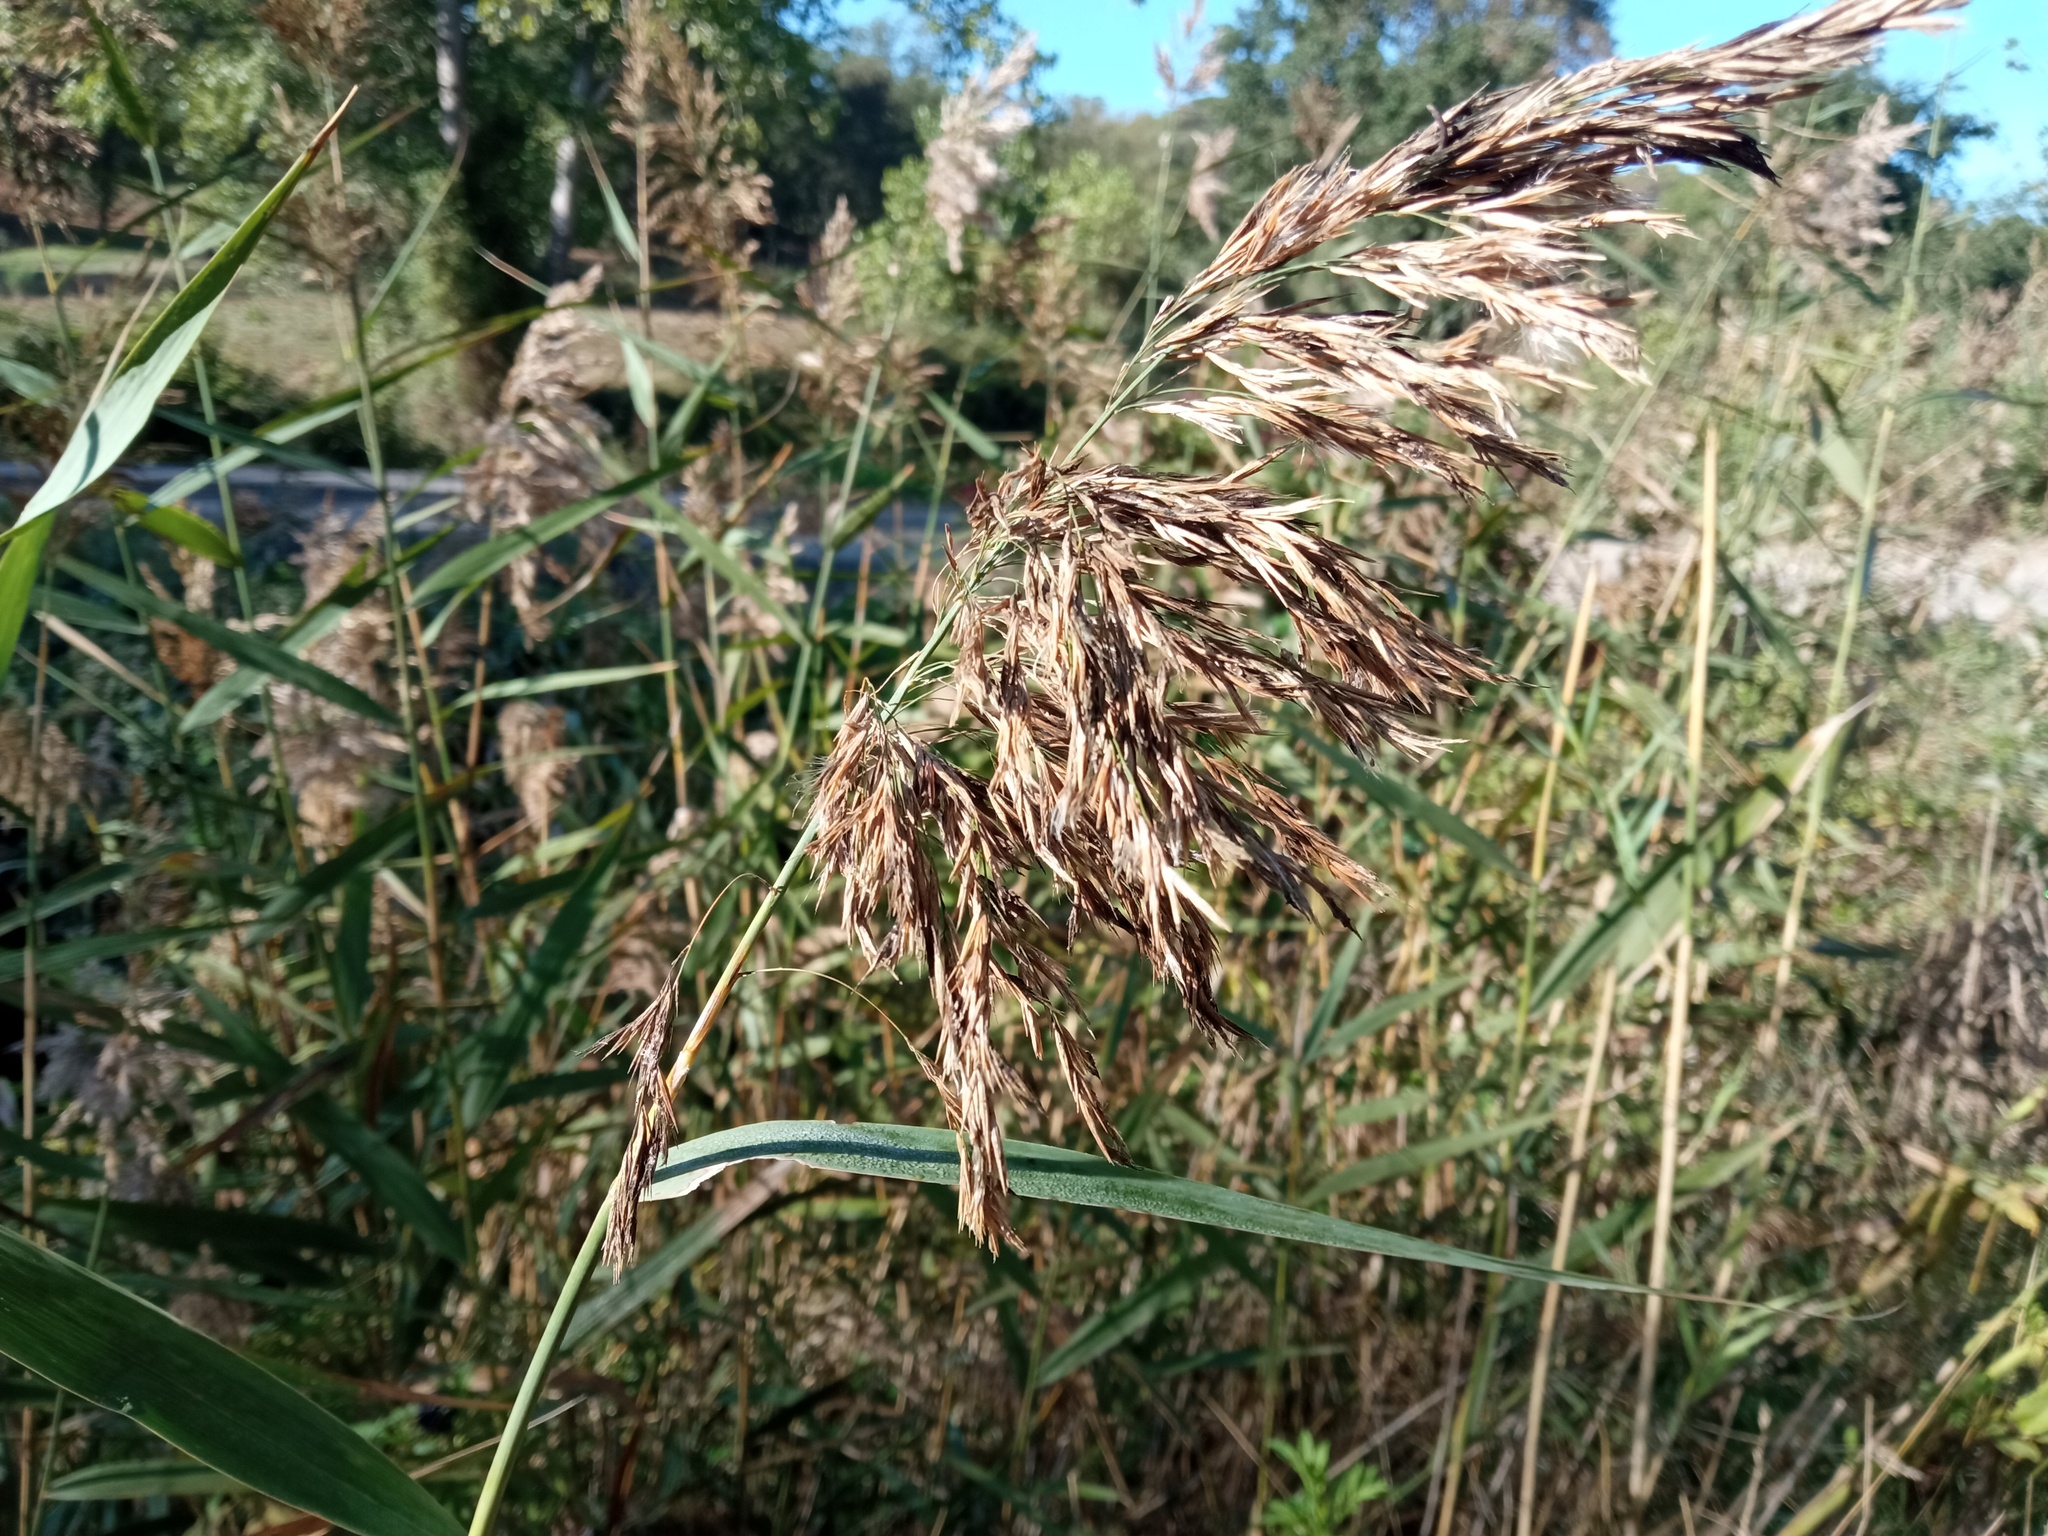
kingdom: Plantae
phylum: Tracheophyta
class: Liliopsida
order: Poales
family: Poaceae
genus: Phragmites
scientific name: Phragmites australis
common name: Common reed
